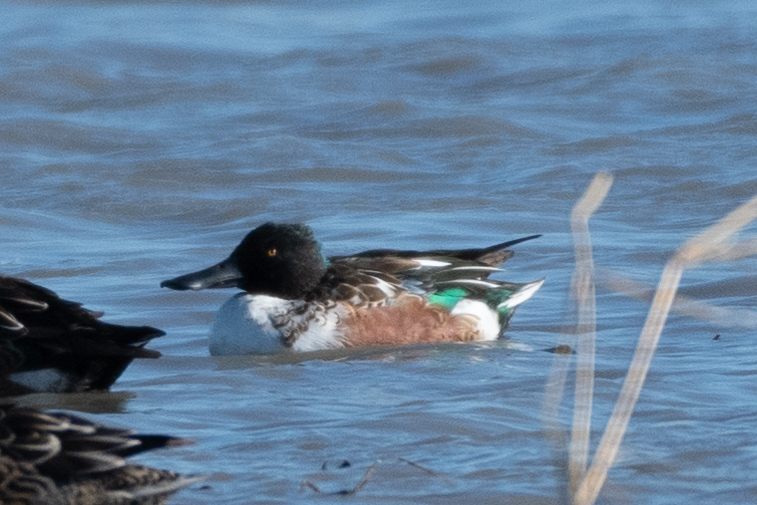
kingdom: Animalia
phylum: Chordata
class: Aves
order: Anseriformes
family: Anatidae
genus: Spatula
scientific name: Spatula clypeata
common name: Northern shoveler
